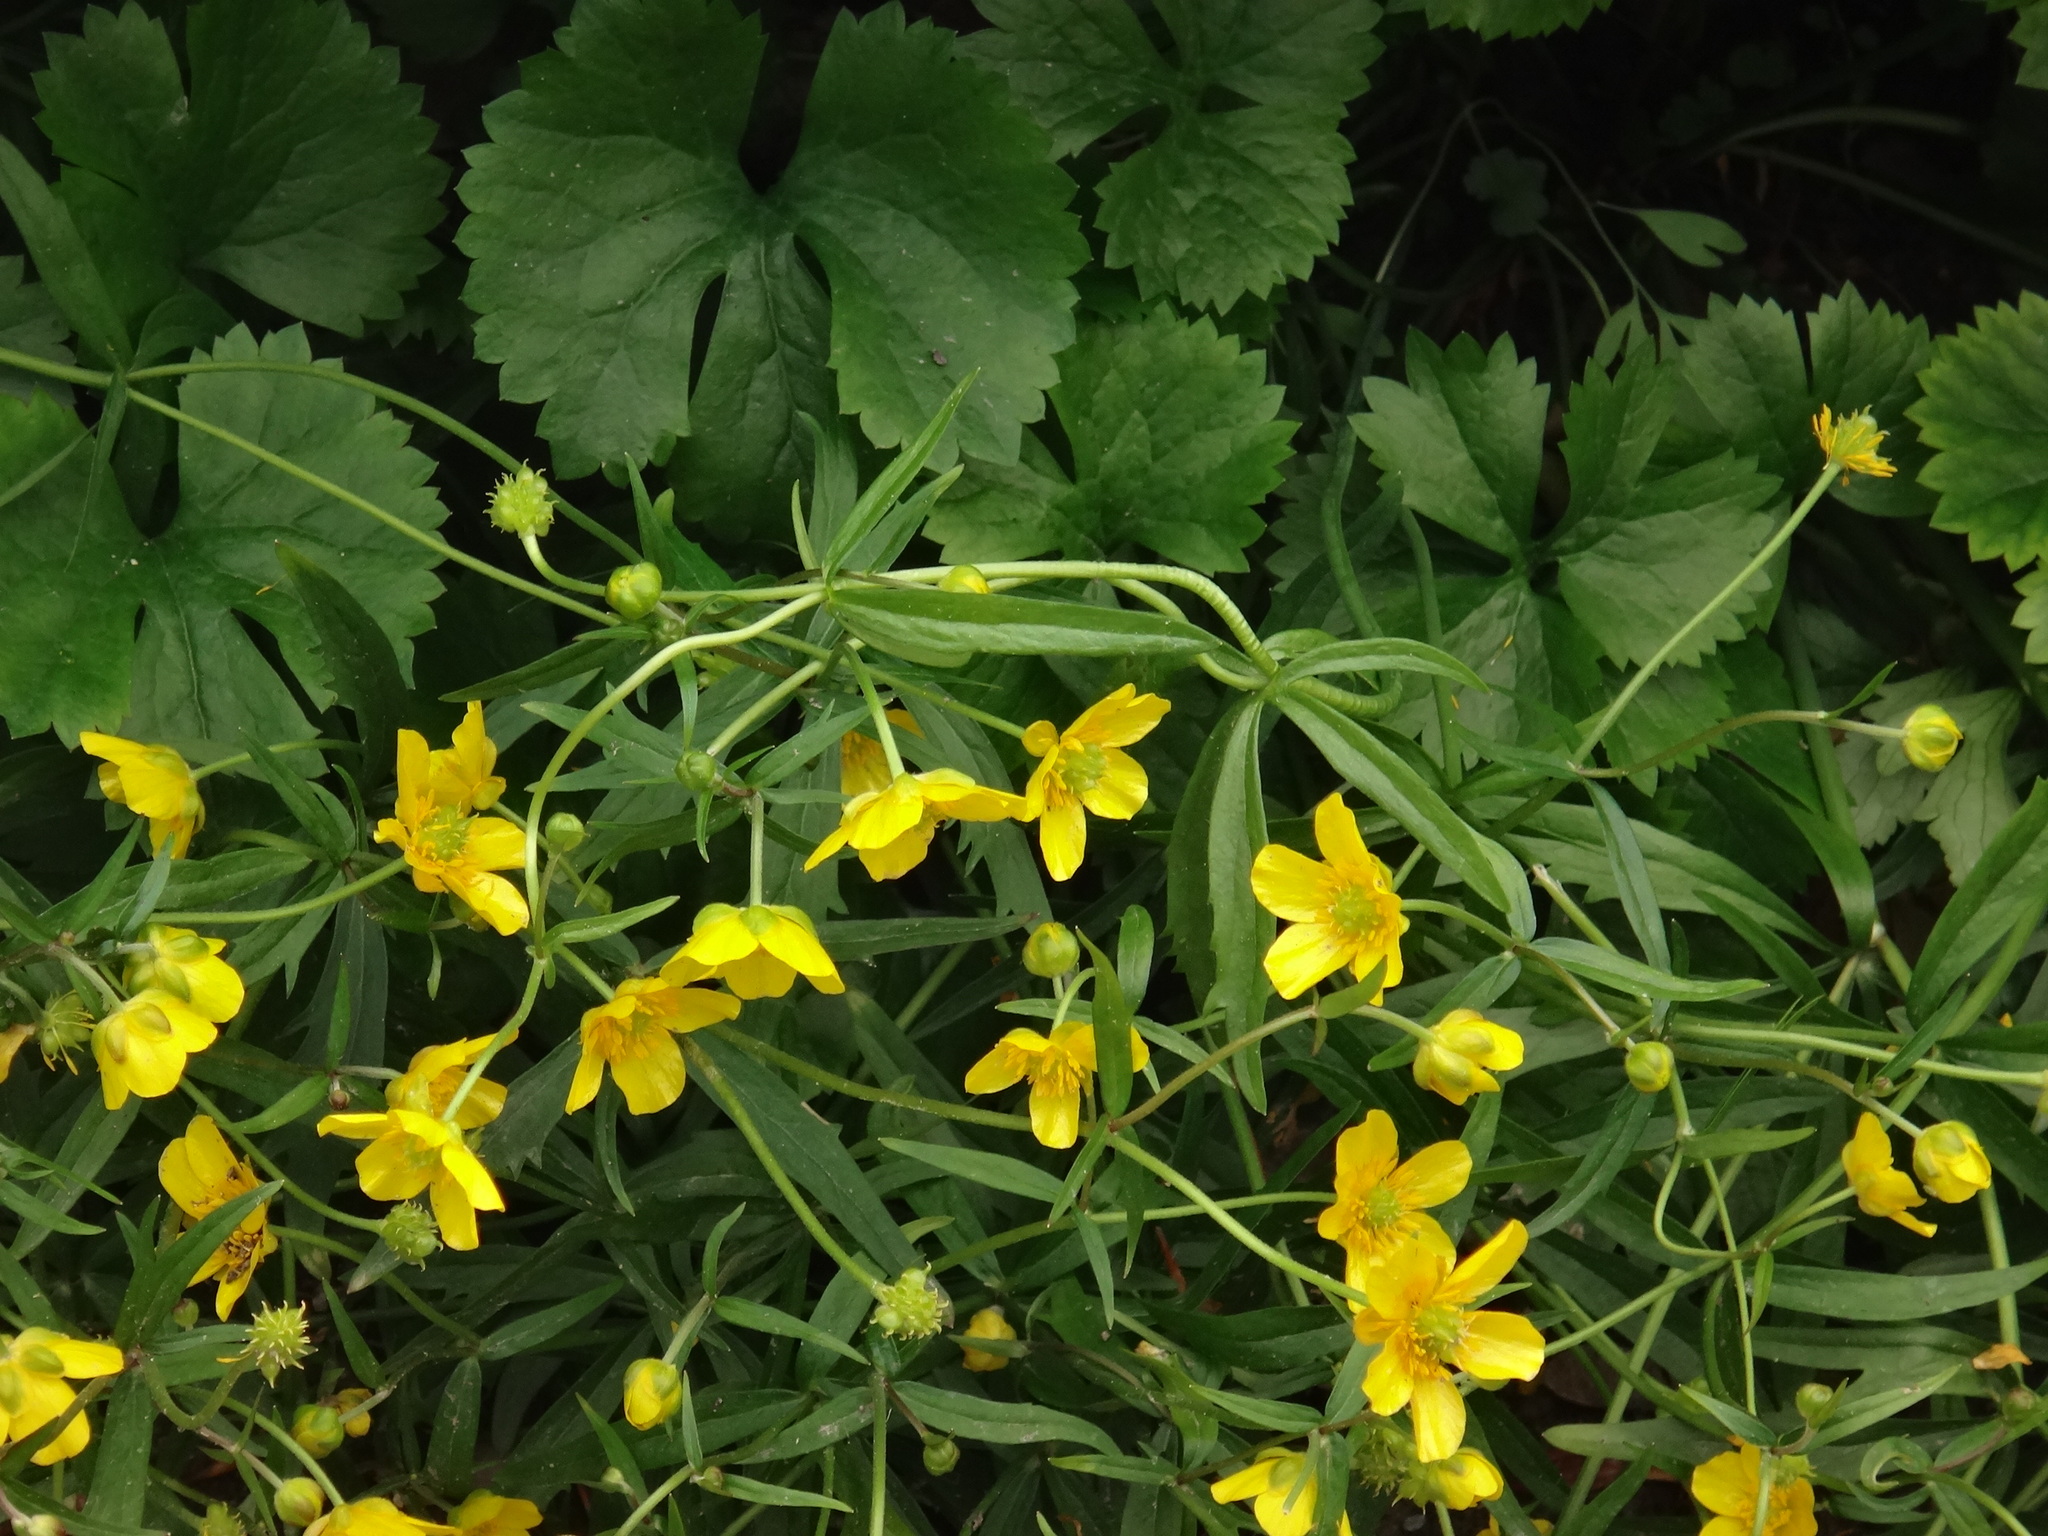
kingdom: Plantae
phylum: Tracheophyta
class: Magnoliopsida
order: Ranunculales
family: Ranunculaceae
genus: Ranunculus
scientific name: Ranunculus auricomus
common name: Goldilocks buttercup
